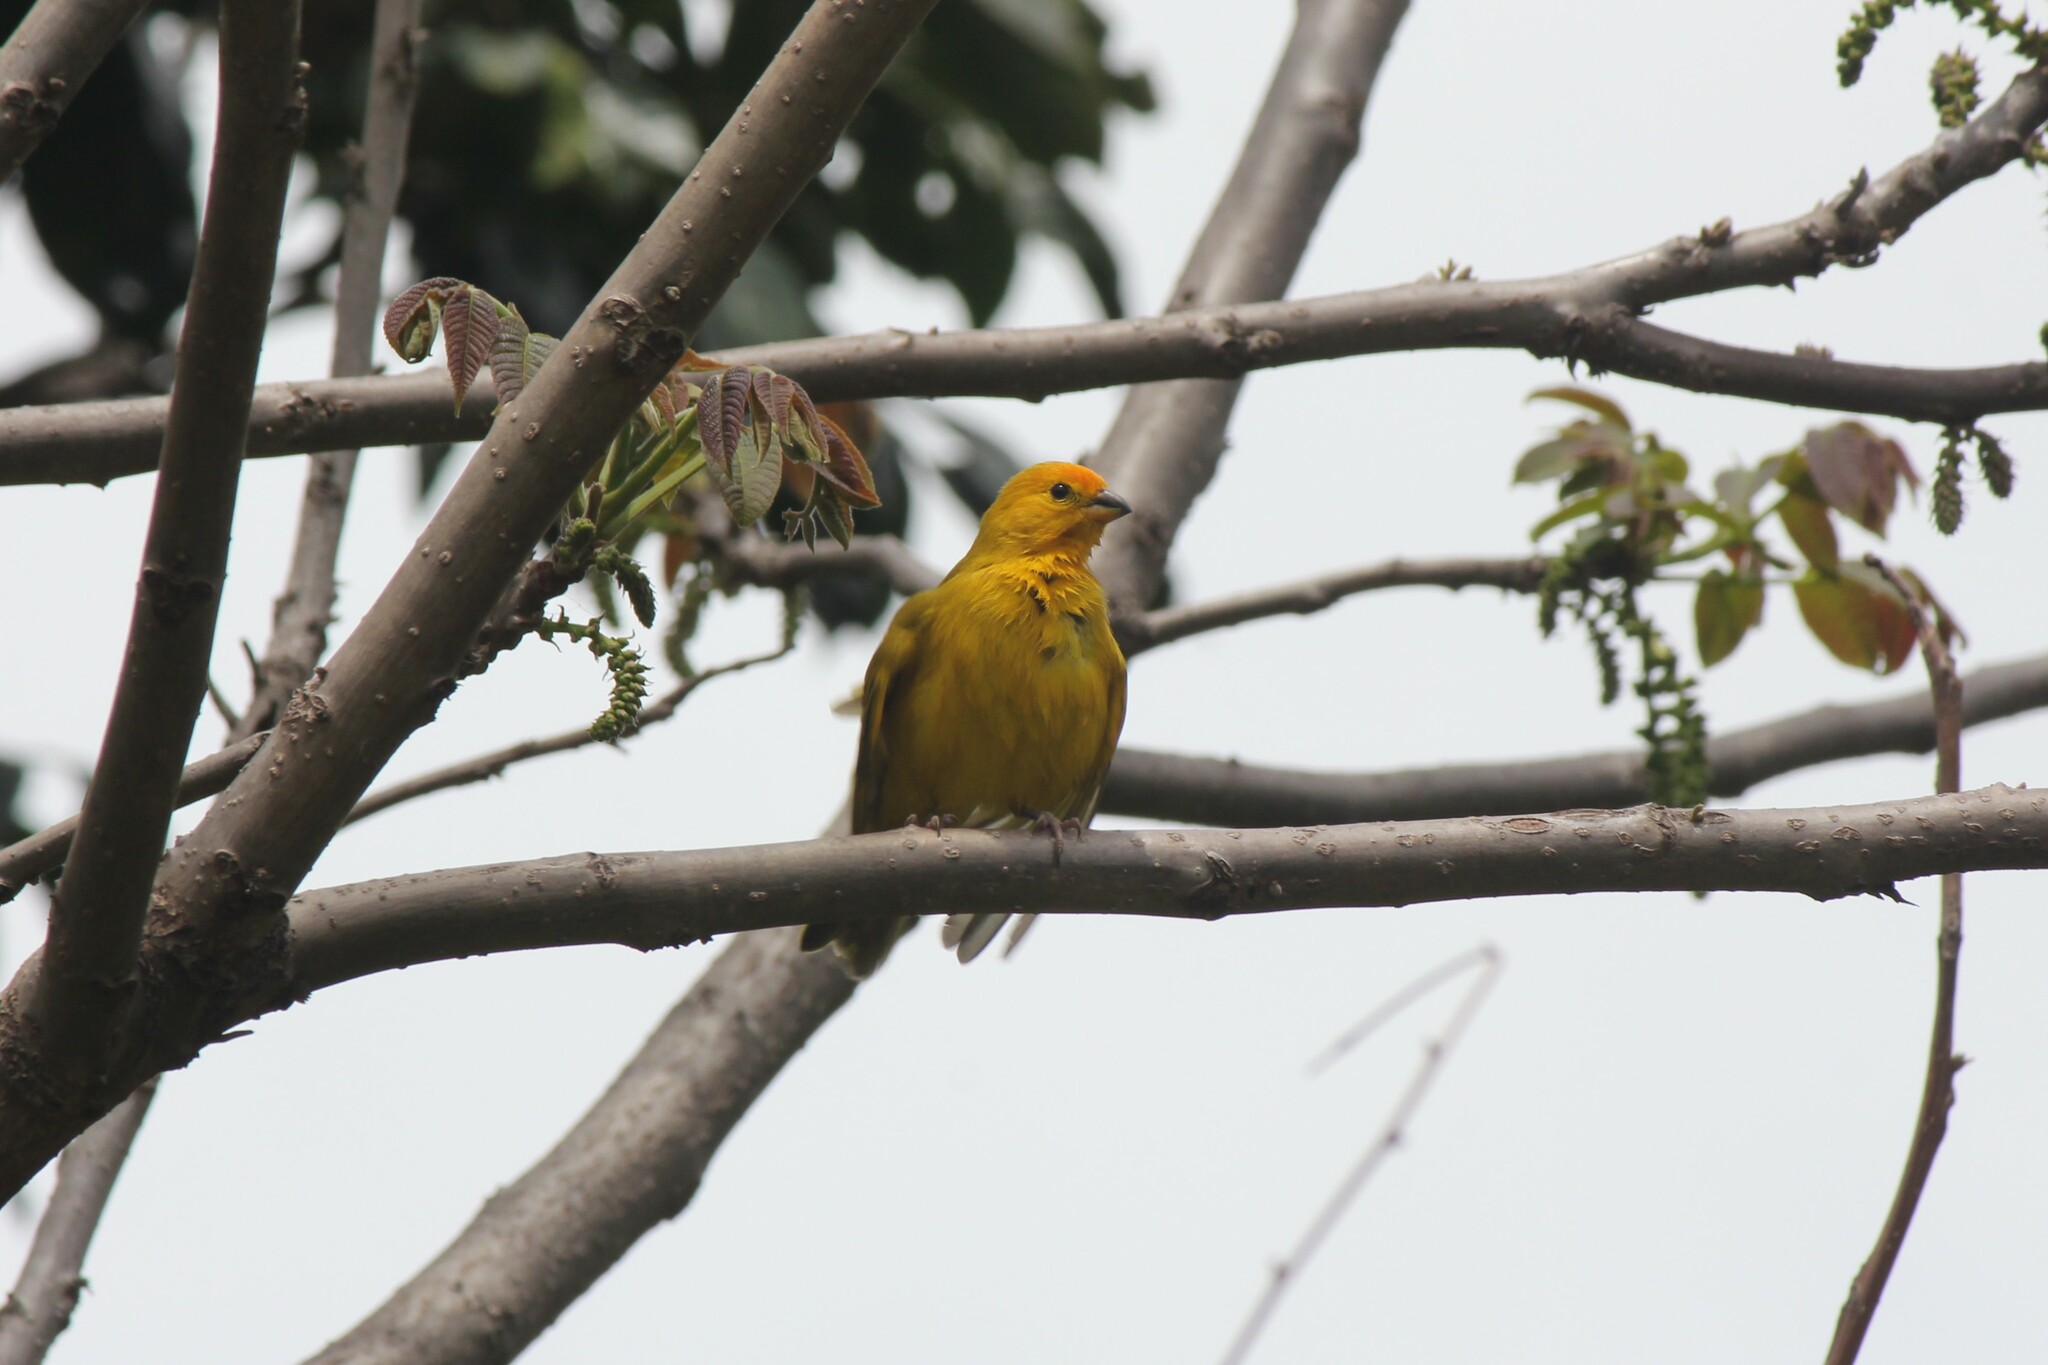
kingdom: Animalia
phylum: Chordata
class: Aves
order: Passeriformes
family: Thraupidae
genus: Sicalis
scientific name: Sicalis flaveola
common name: Saffron finch
